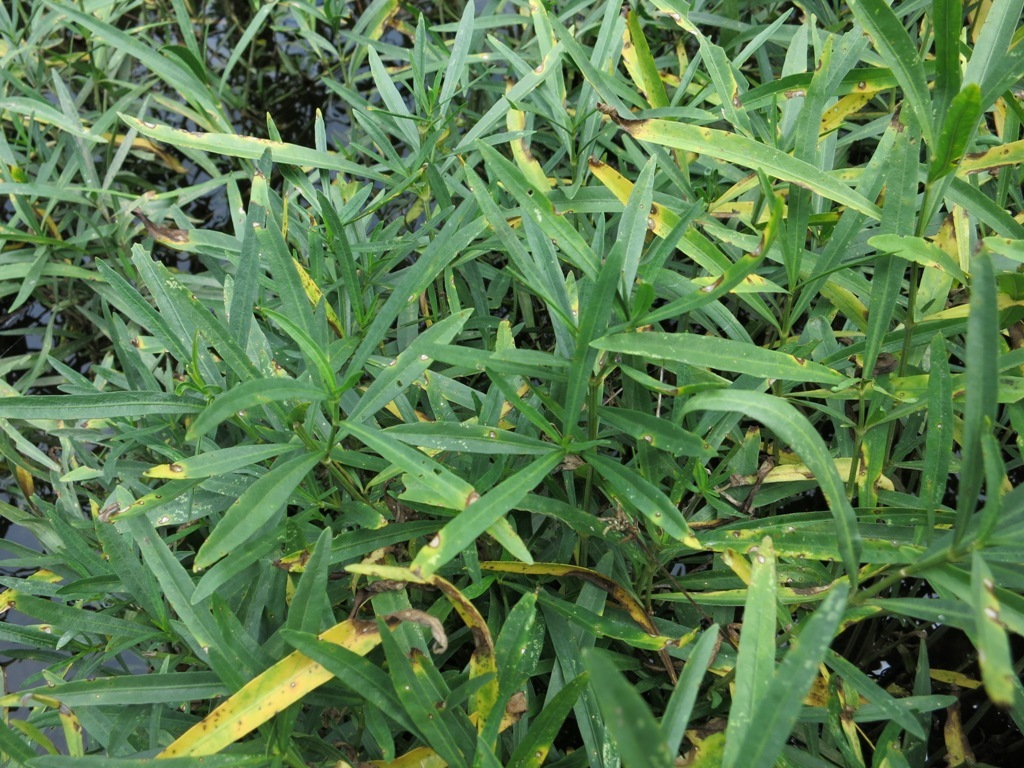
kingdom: Plantae
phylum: Tracheophyta
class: Magnoliopsida
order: Lamiales
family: Acanthaceae
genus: Dianthera
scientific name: Dianthera americana
